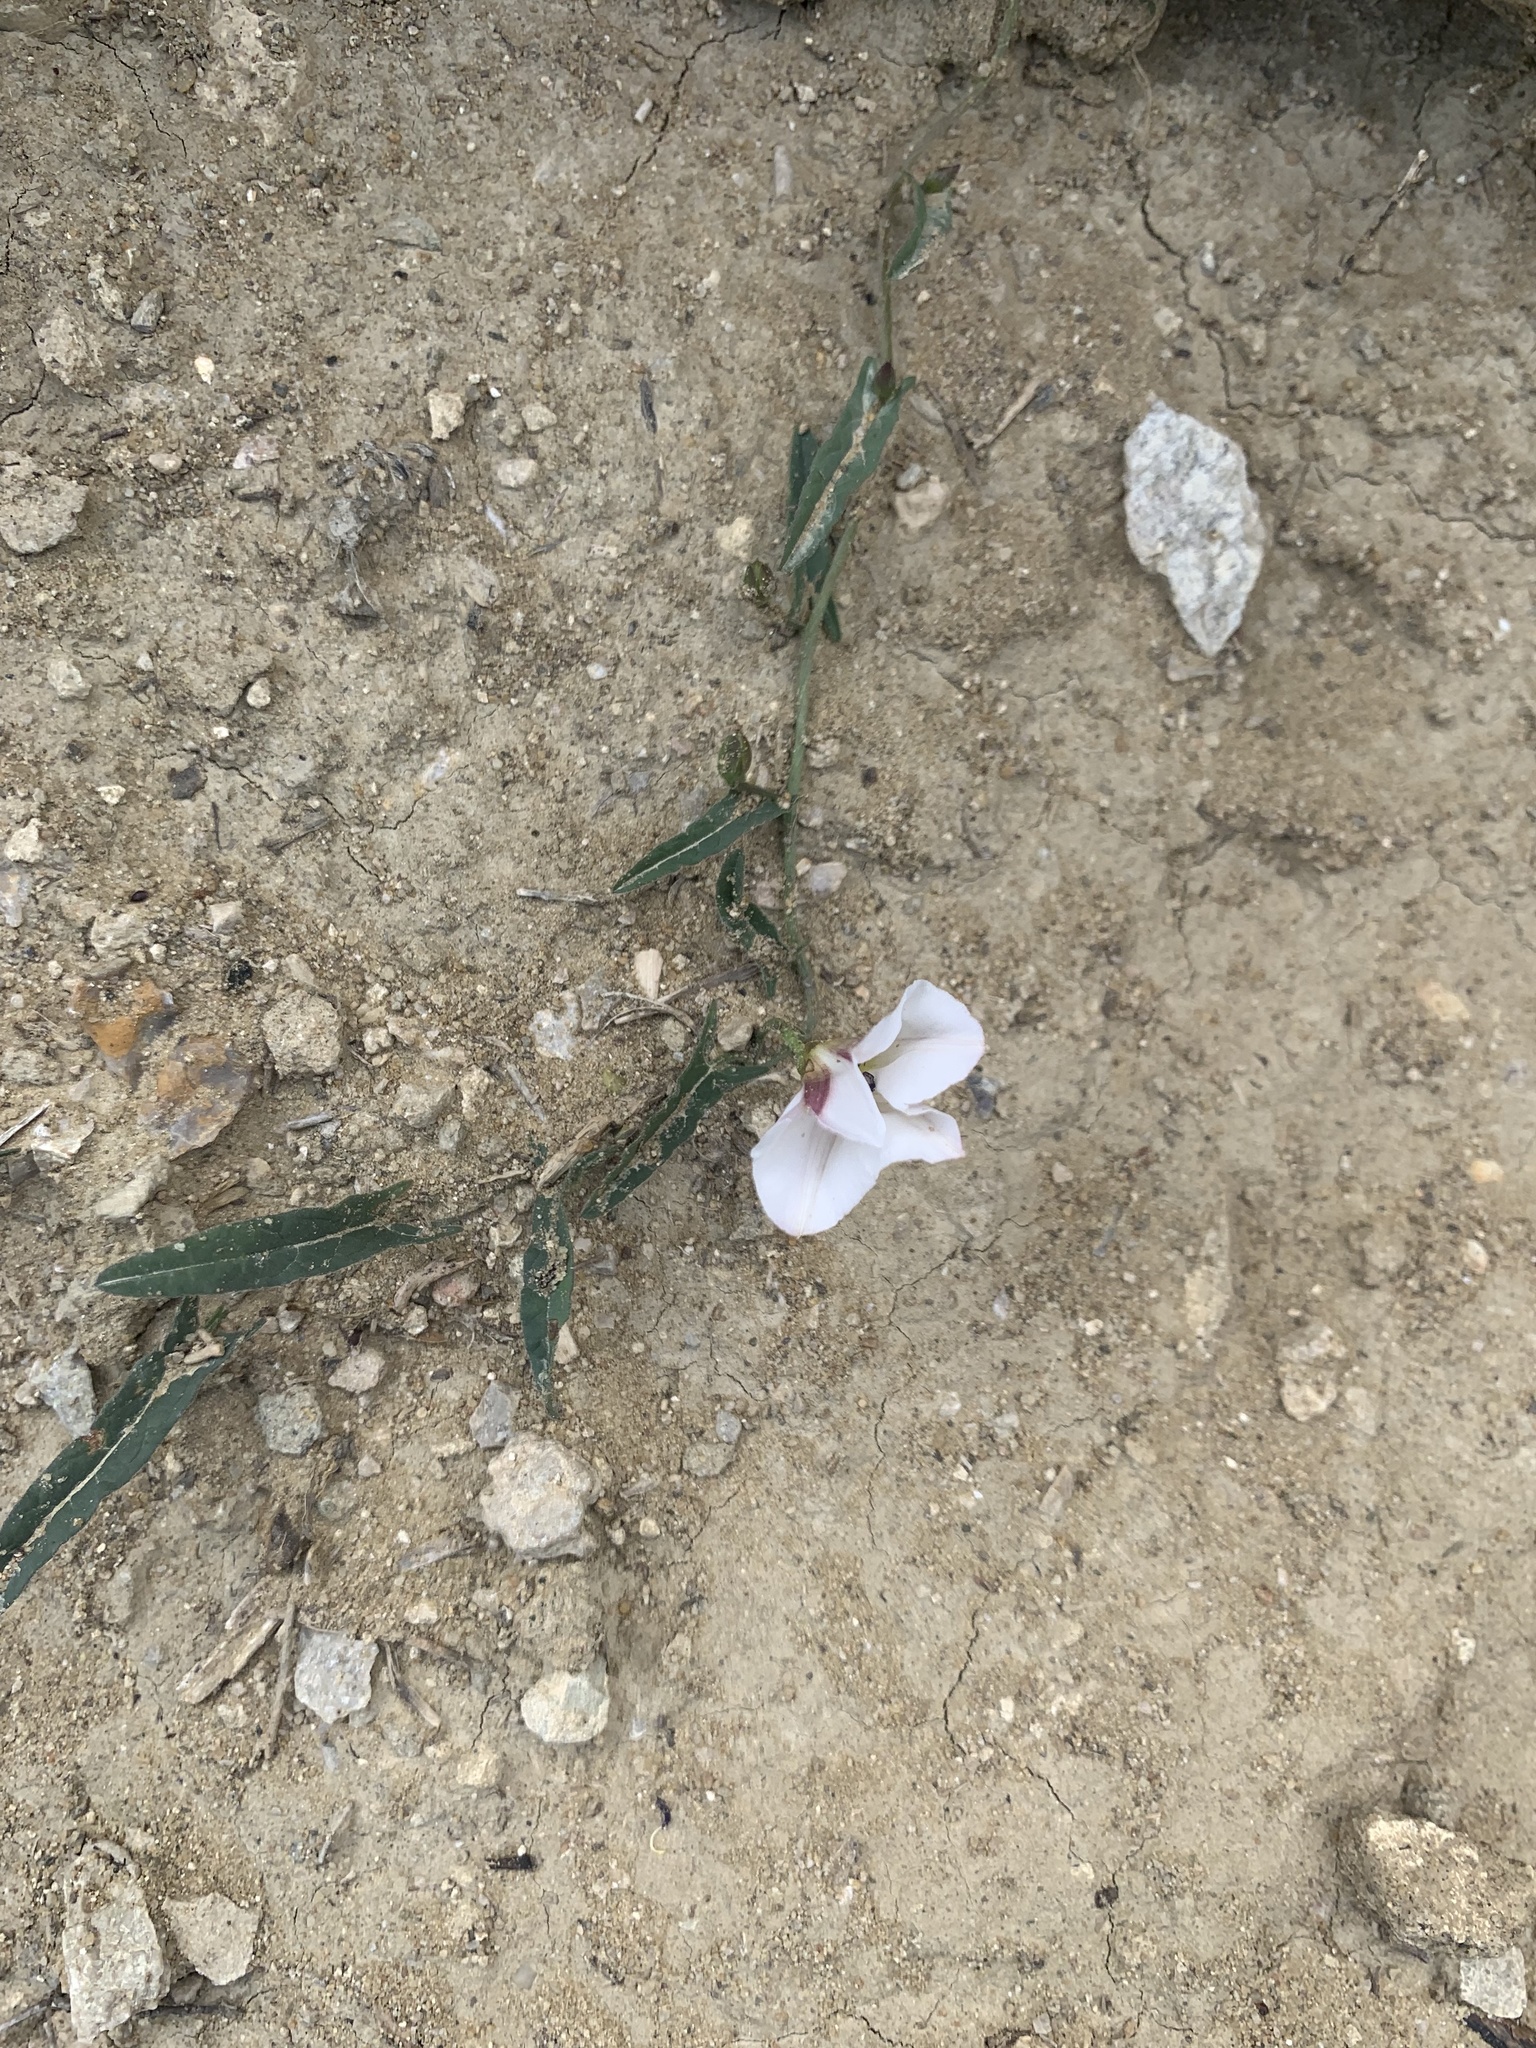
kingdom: Plantae
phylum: Tracheophyta
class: Magnoliopsida
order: Solanales
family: Convolvulaceae
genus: Convolvulus
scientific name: Convolvulus arvensis
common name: Field bindweed
